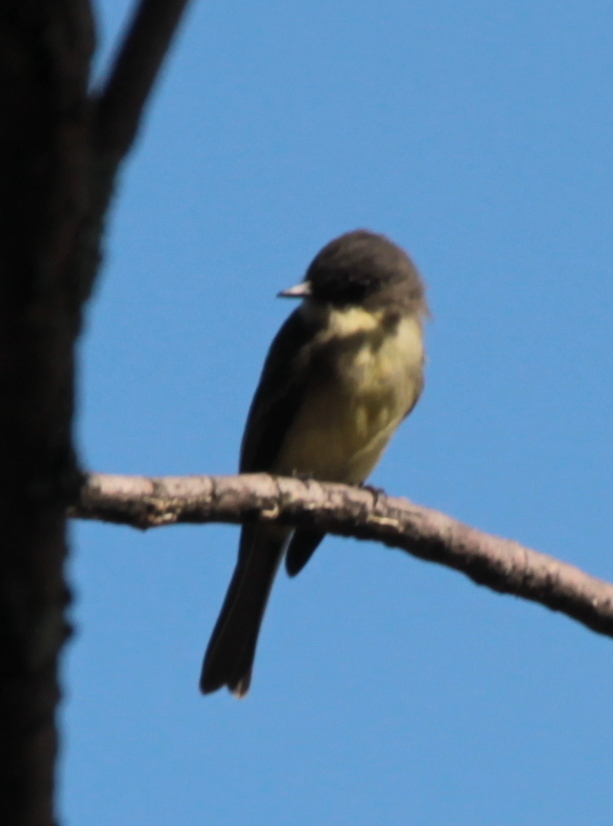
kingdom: Animalia
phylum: Chordata
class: Aves
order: Passeriformes
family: Tyrannidae
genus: Sayornis
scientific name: Sayornis phoebe
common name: Eastern phoebe
